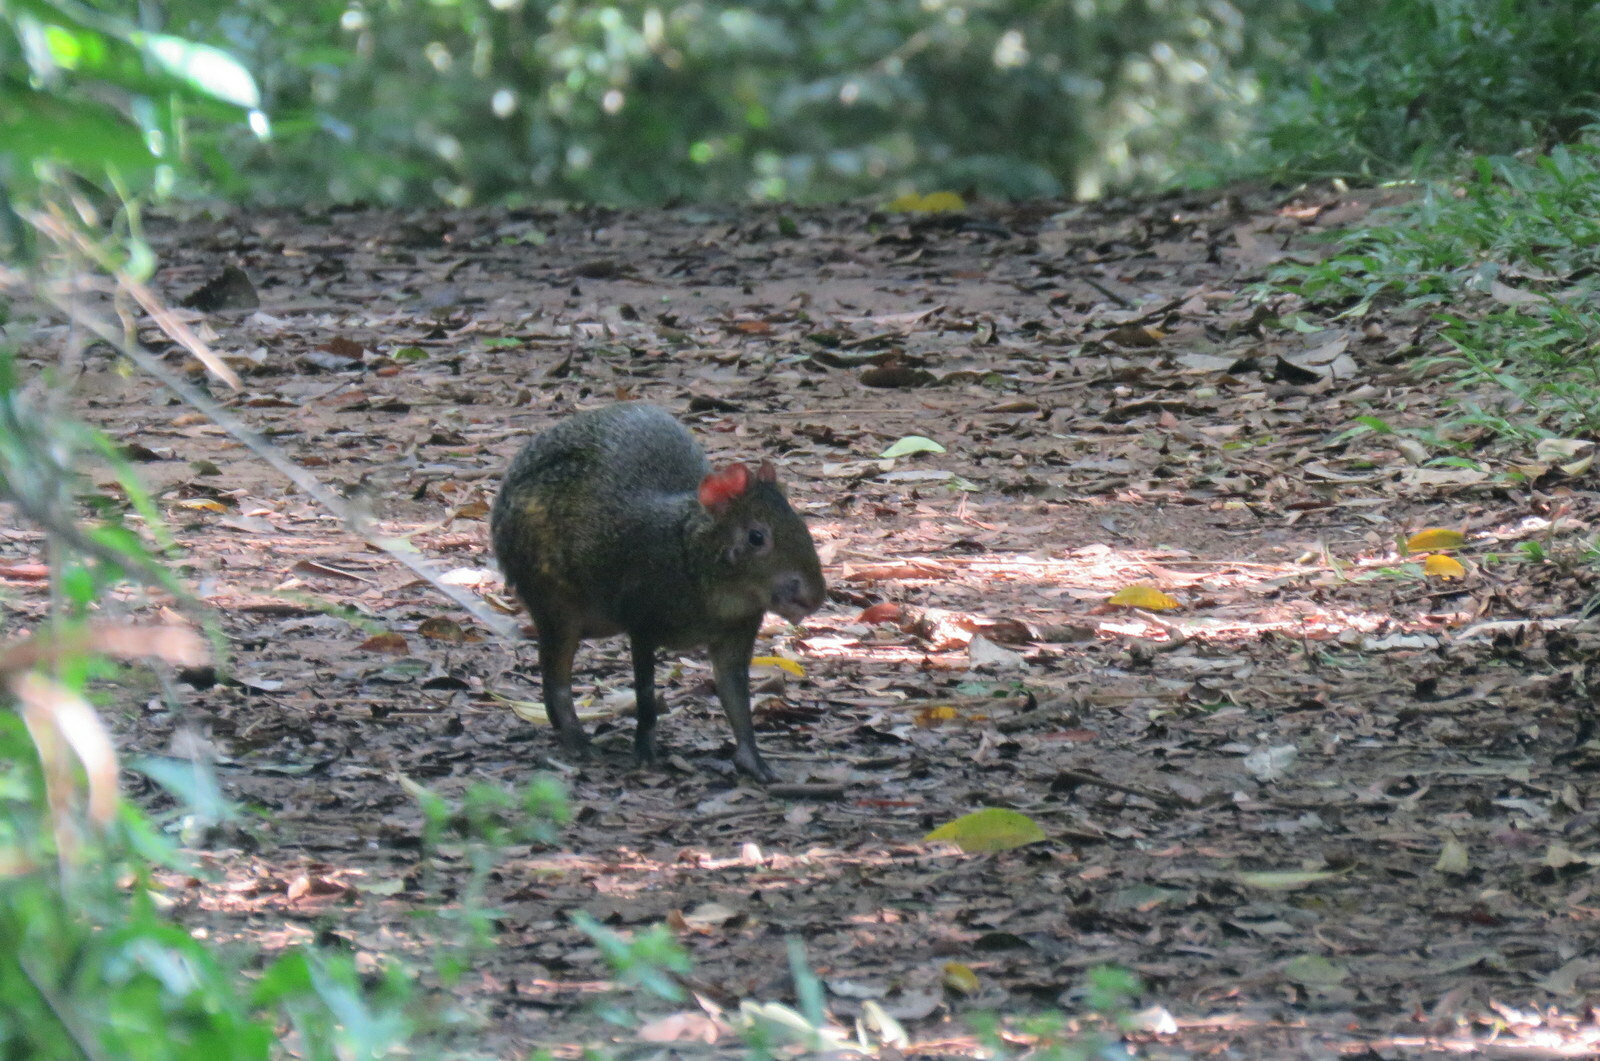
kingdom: Animalia
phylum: Chordata
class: Mammalia
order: Rodentia
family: Dasyproctidae
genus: Dasyprocta
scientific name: Dasyprocta azarae
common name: Azara's agouti
